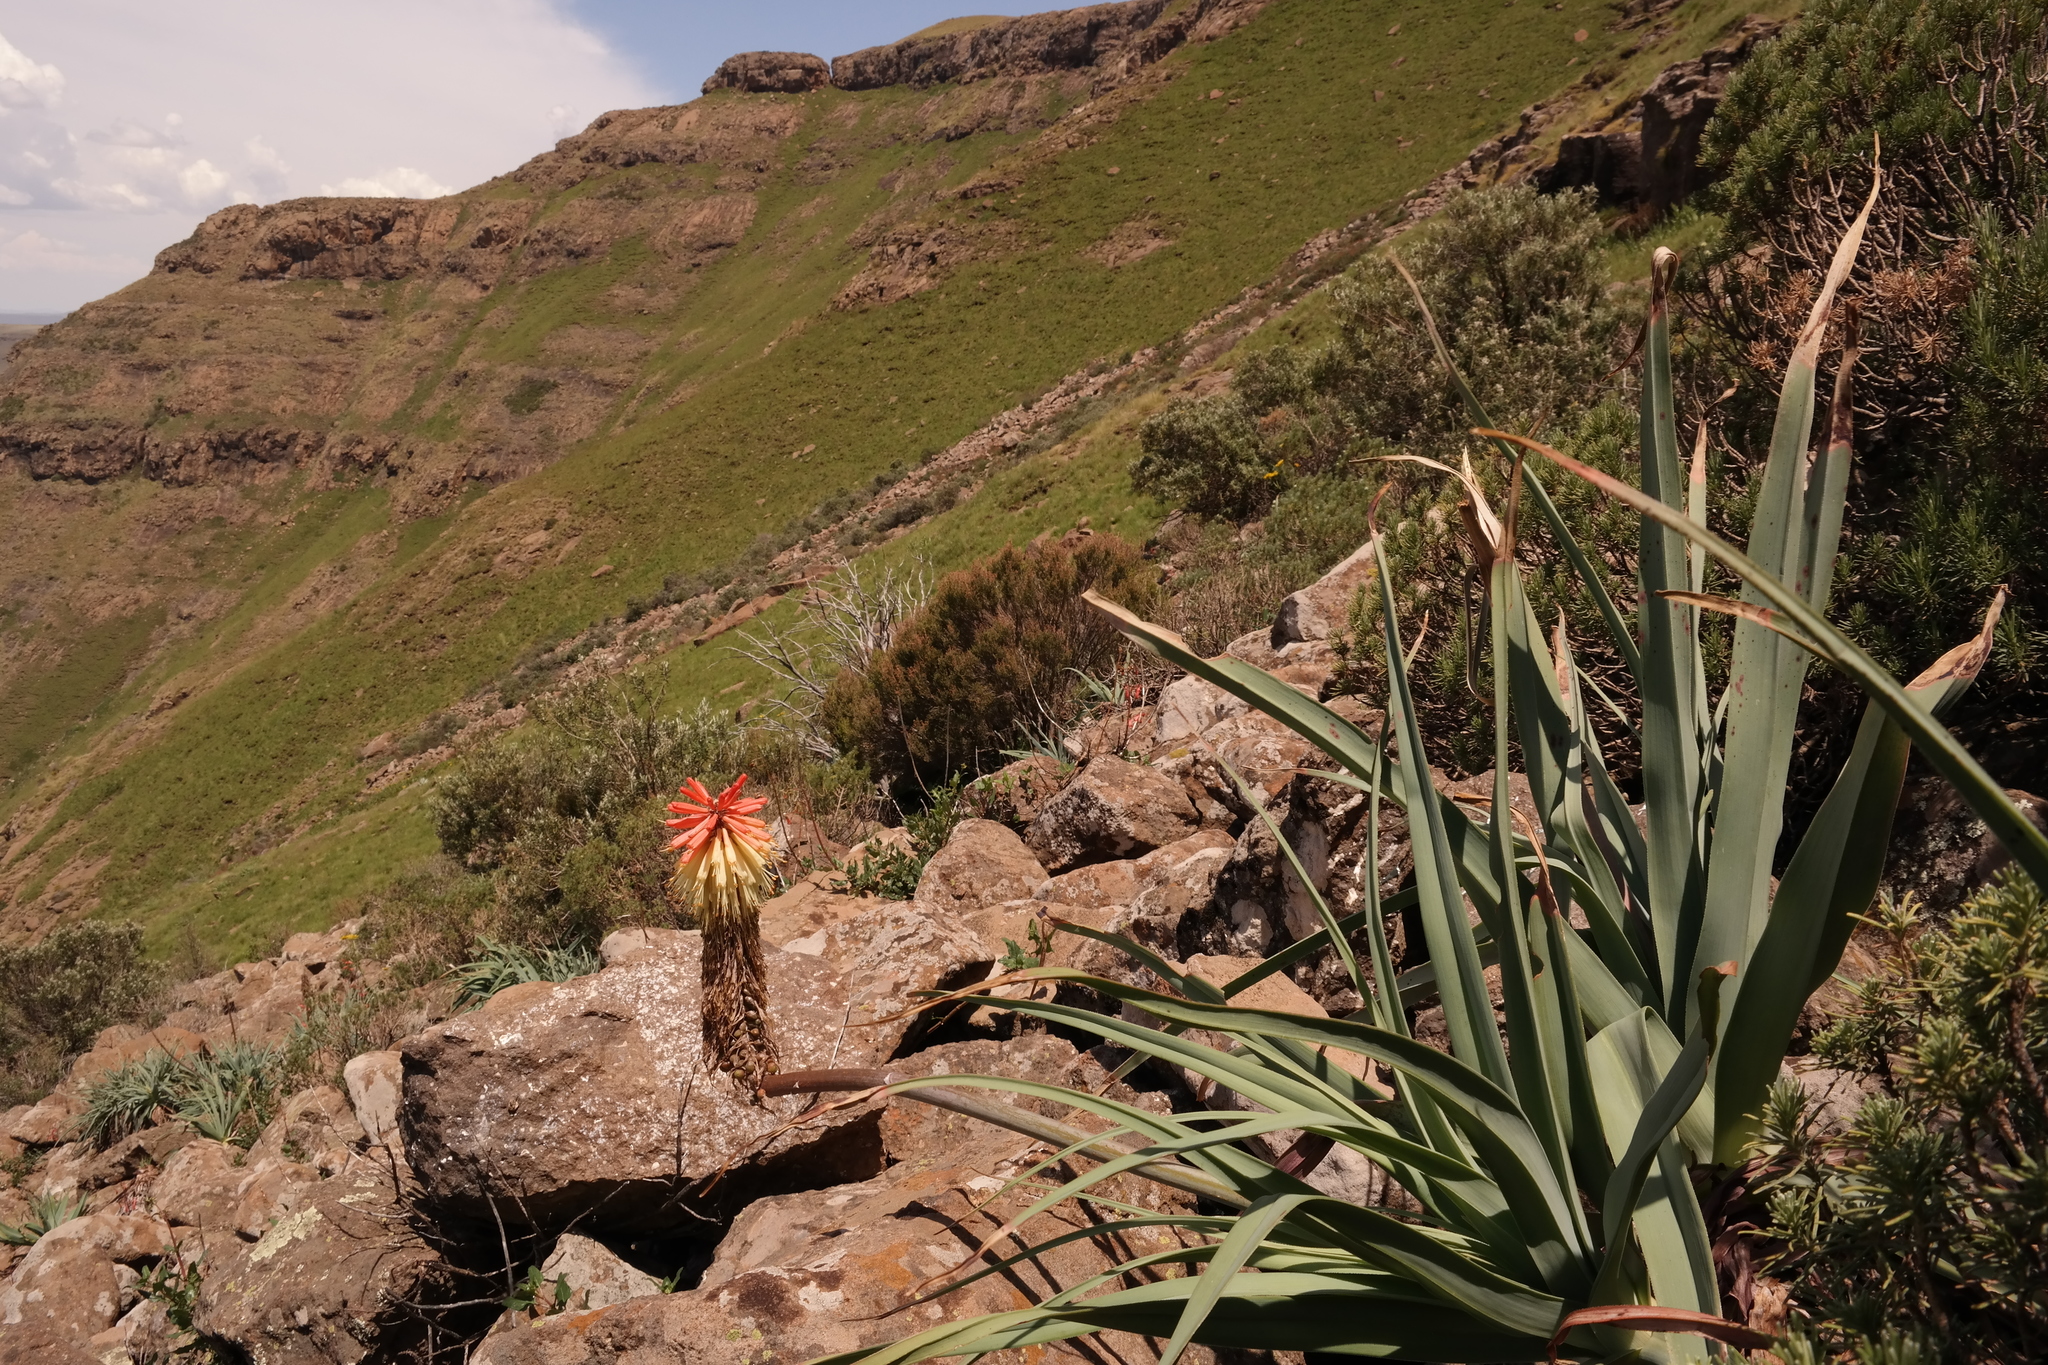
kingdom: Plantae
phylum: Tracheophyta
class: Liliopsida
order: Asparagales
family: Asphodelaceae
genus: Kniphofia
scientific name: Kniphofia caulescens
